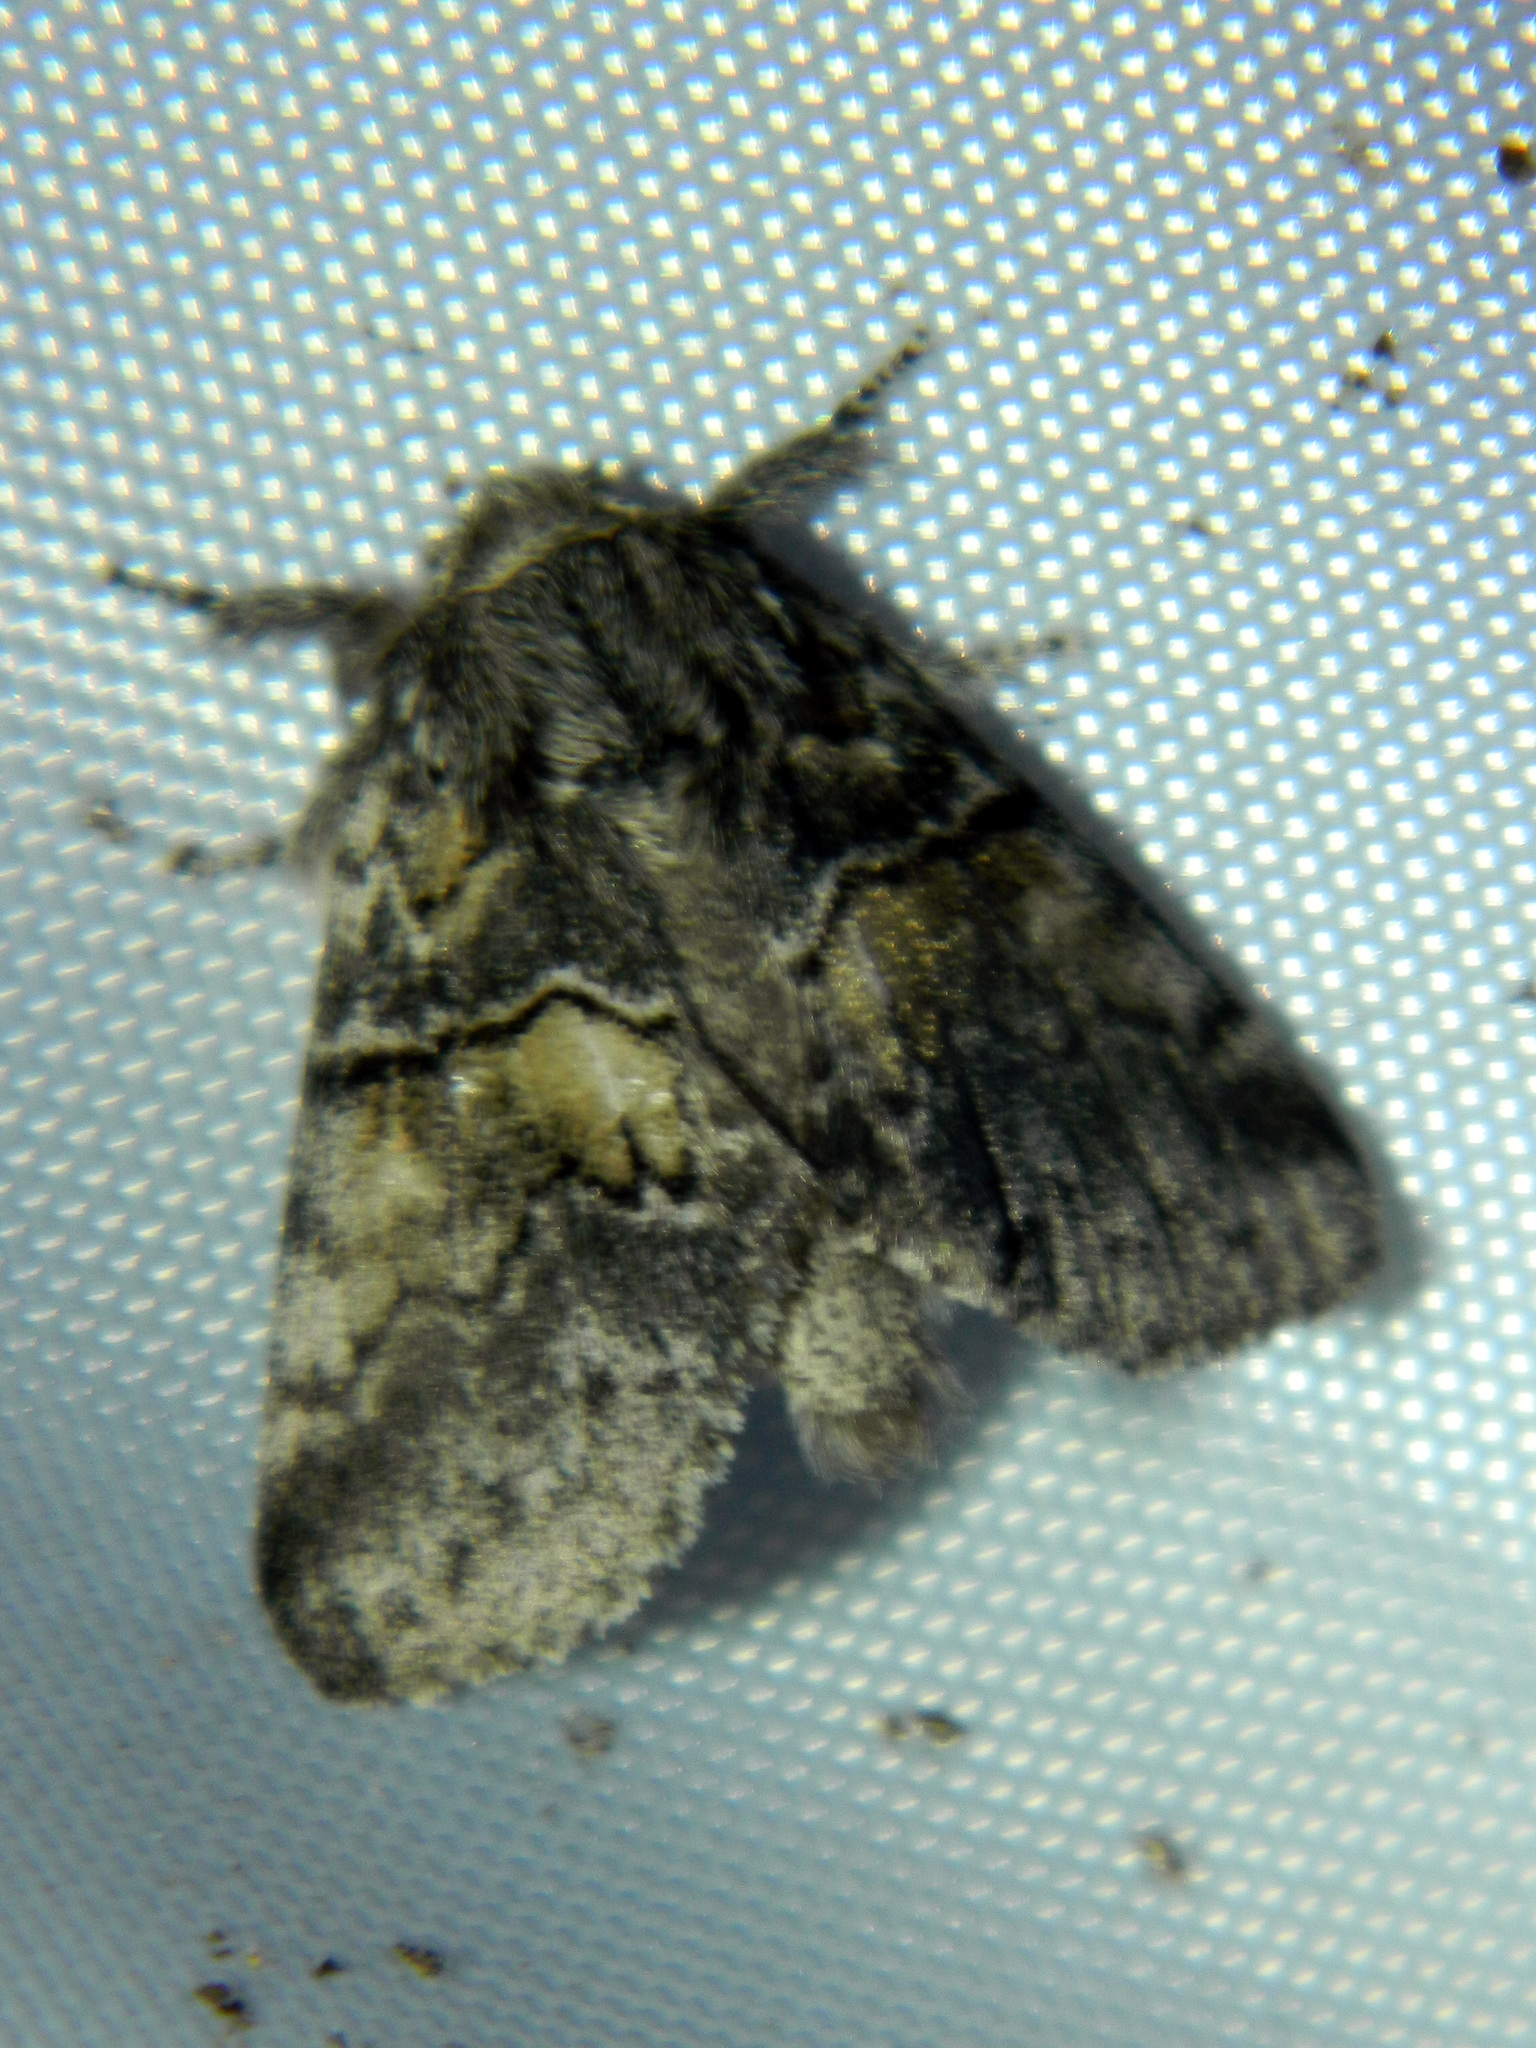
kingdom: Animalia
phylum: Arthropoda
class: Insecta
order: Lepidoptera
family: Notodontidae
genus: Gluphisia
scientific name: Gluphisia septentrionis
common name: Common gluphisia
